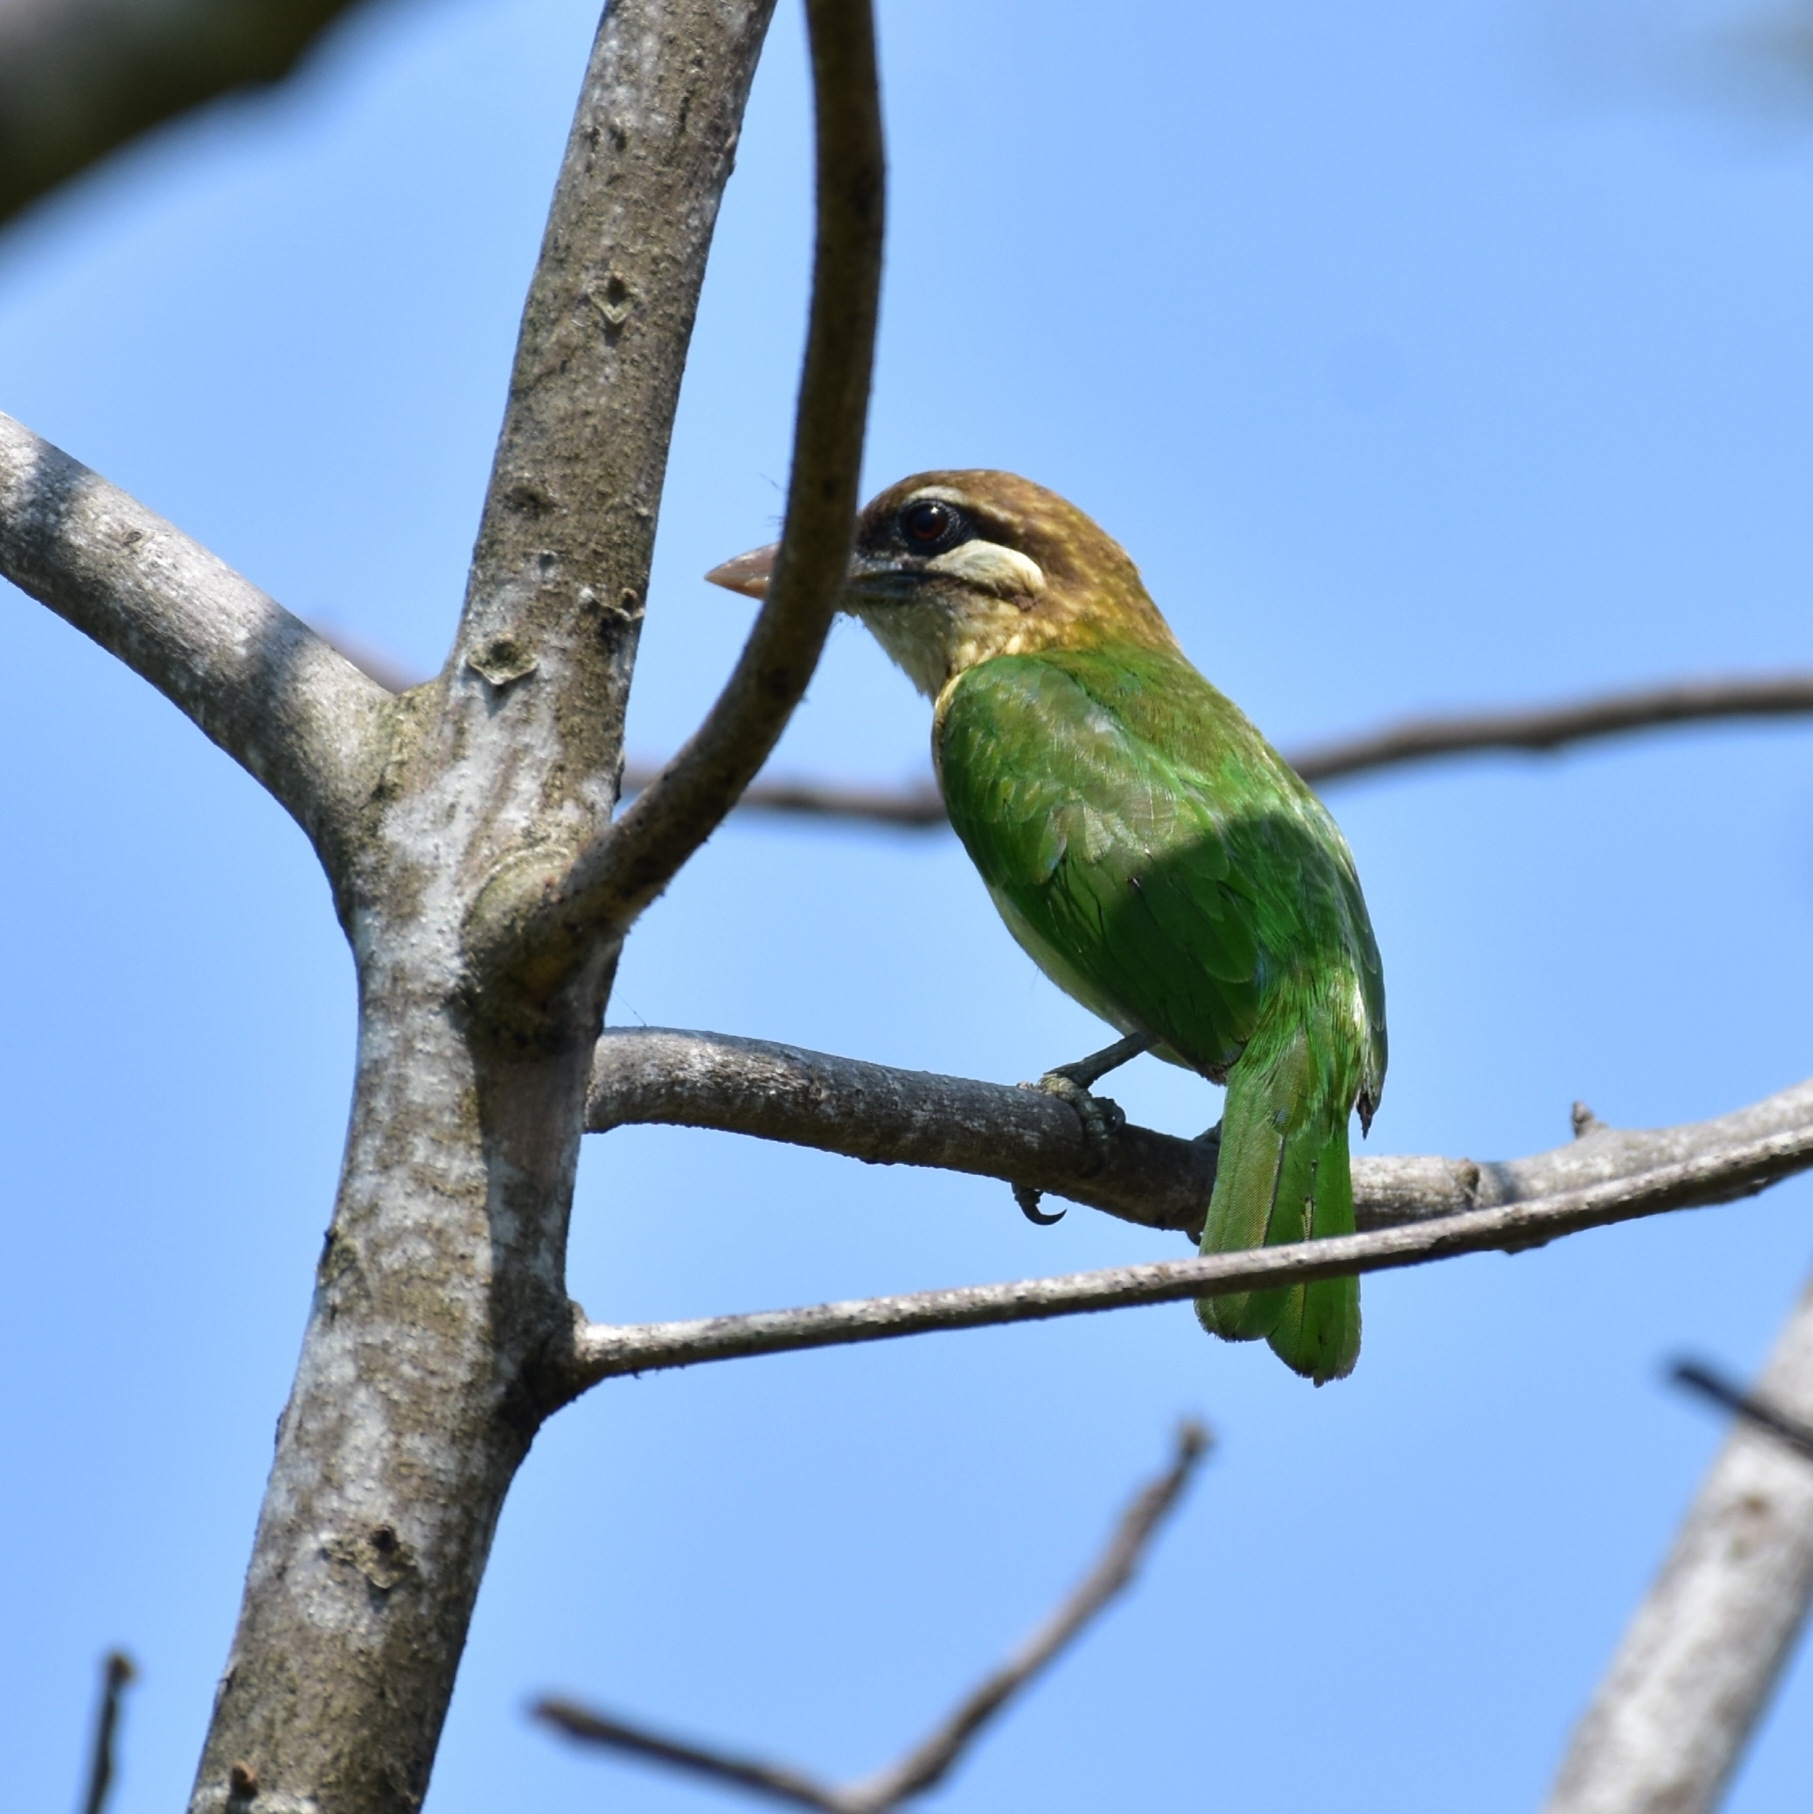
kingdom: Animalia
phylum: Chordata
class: Aves
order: Piciformes
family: Megalaimidae
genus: Psilopogon
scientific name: Psilopogon viridis
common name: White-cheeked barbet
